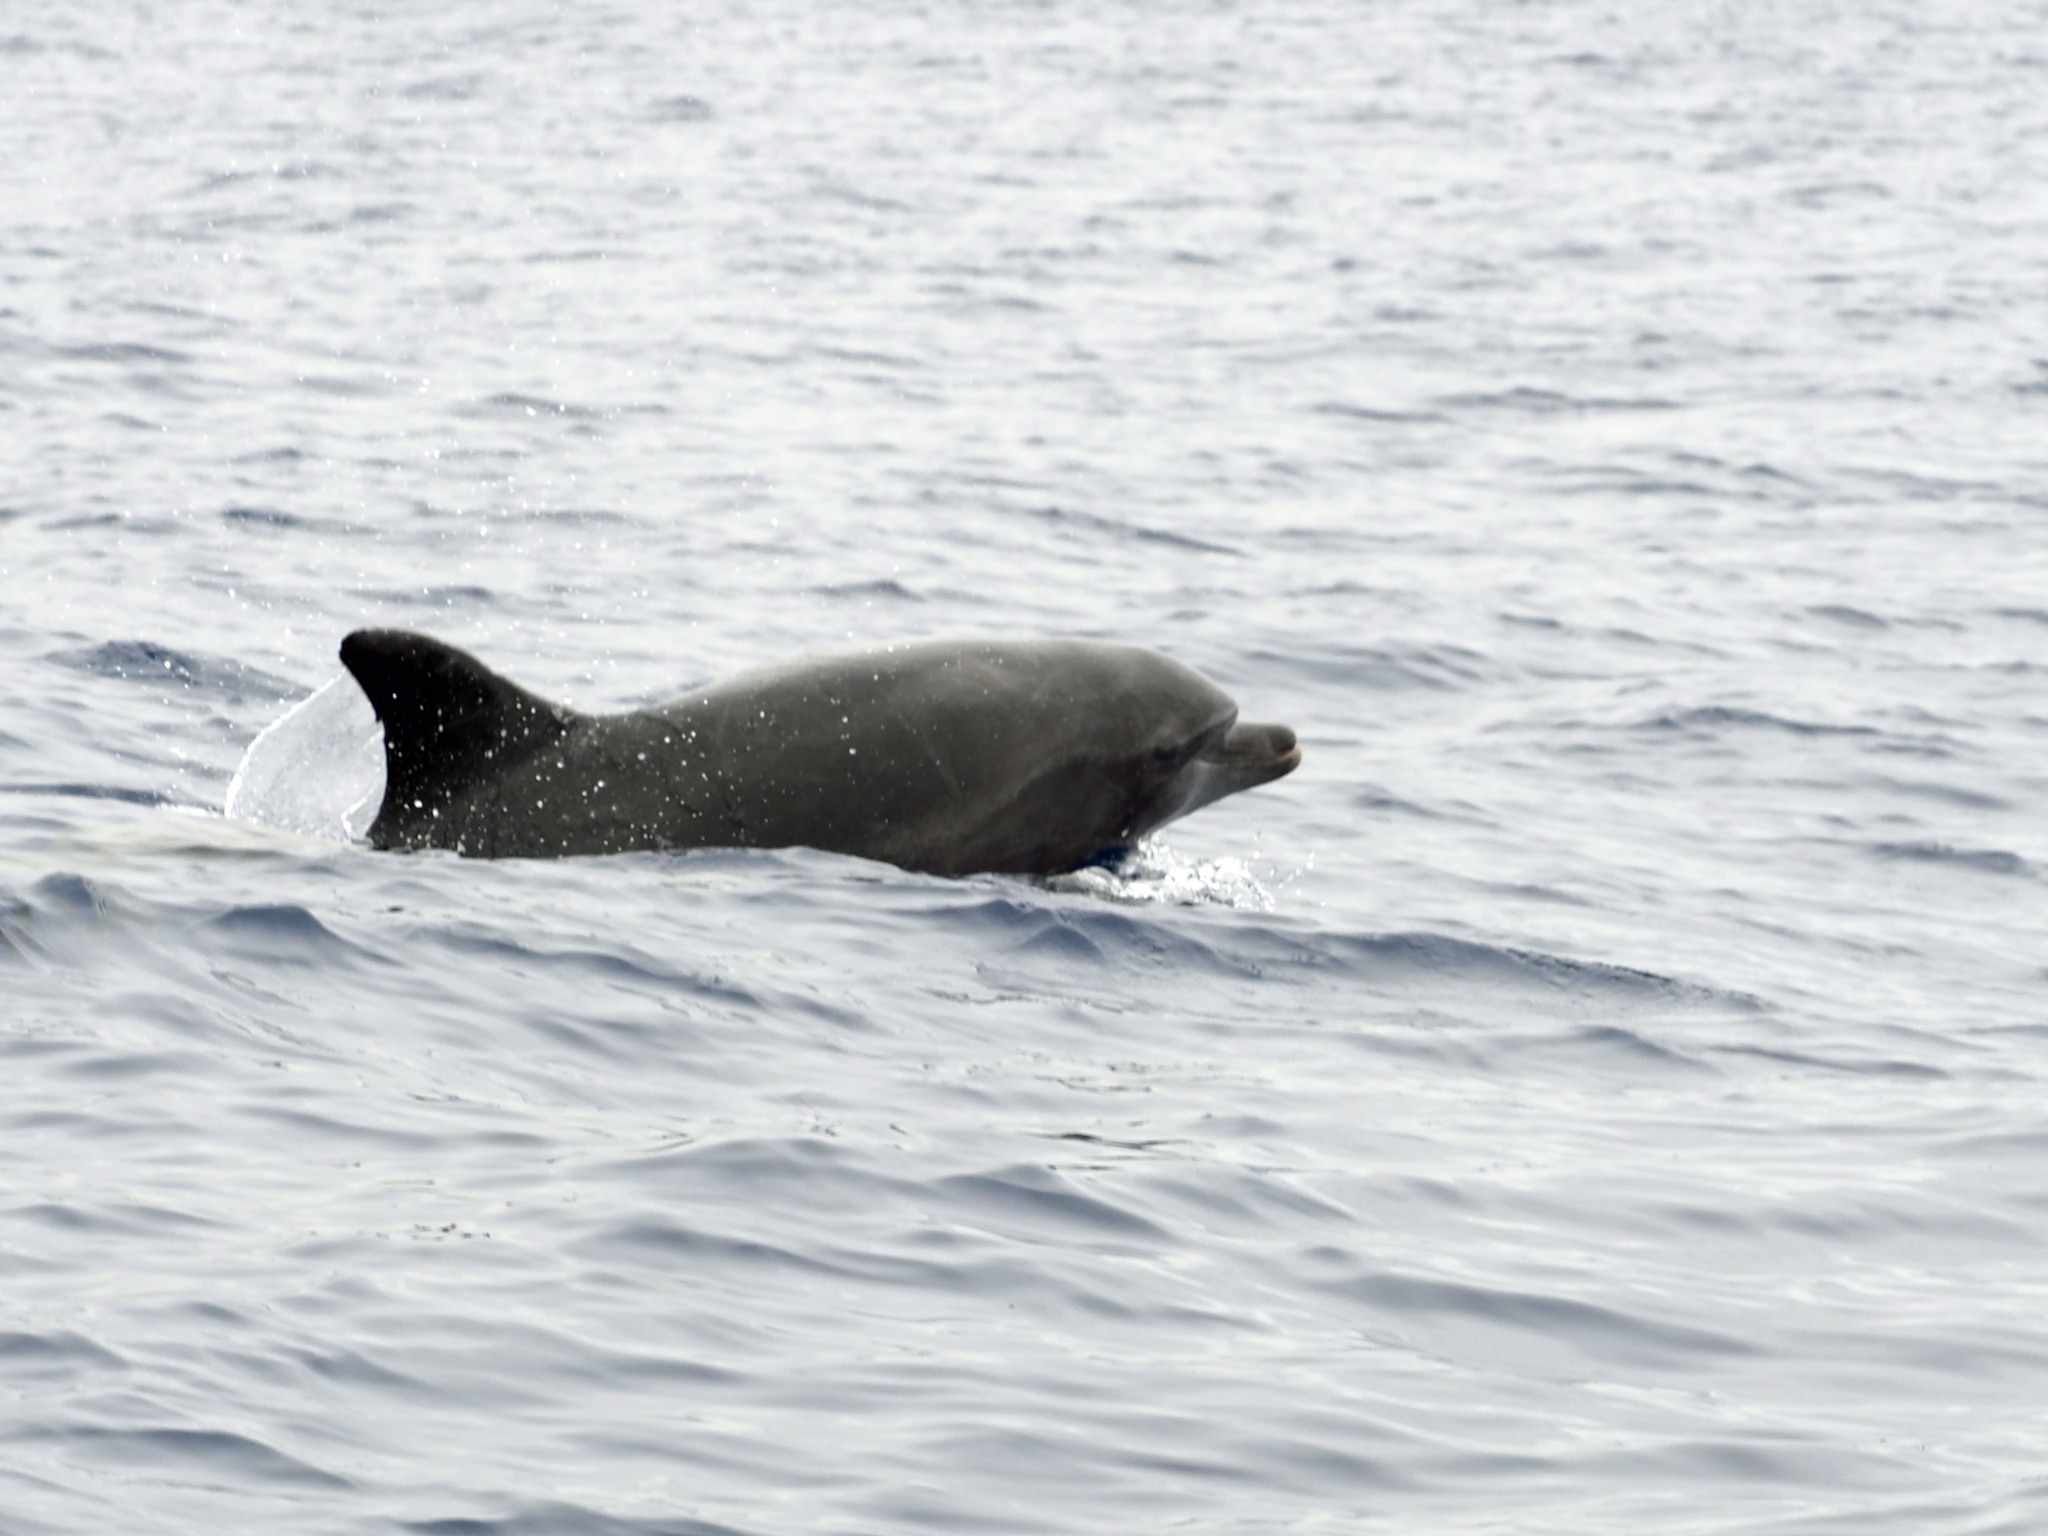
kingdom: Animalia
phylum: Chordata
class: Mammalia
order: Cetacea
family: Delphinidae
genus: Tursiops
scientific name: Tursiops truncatus
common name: Bottlenose dolphin
